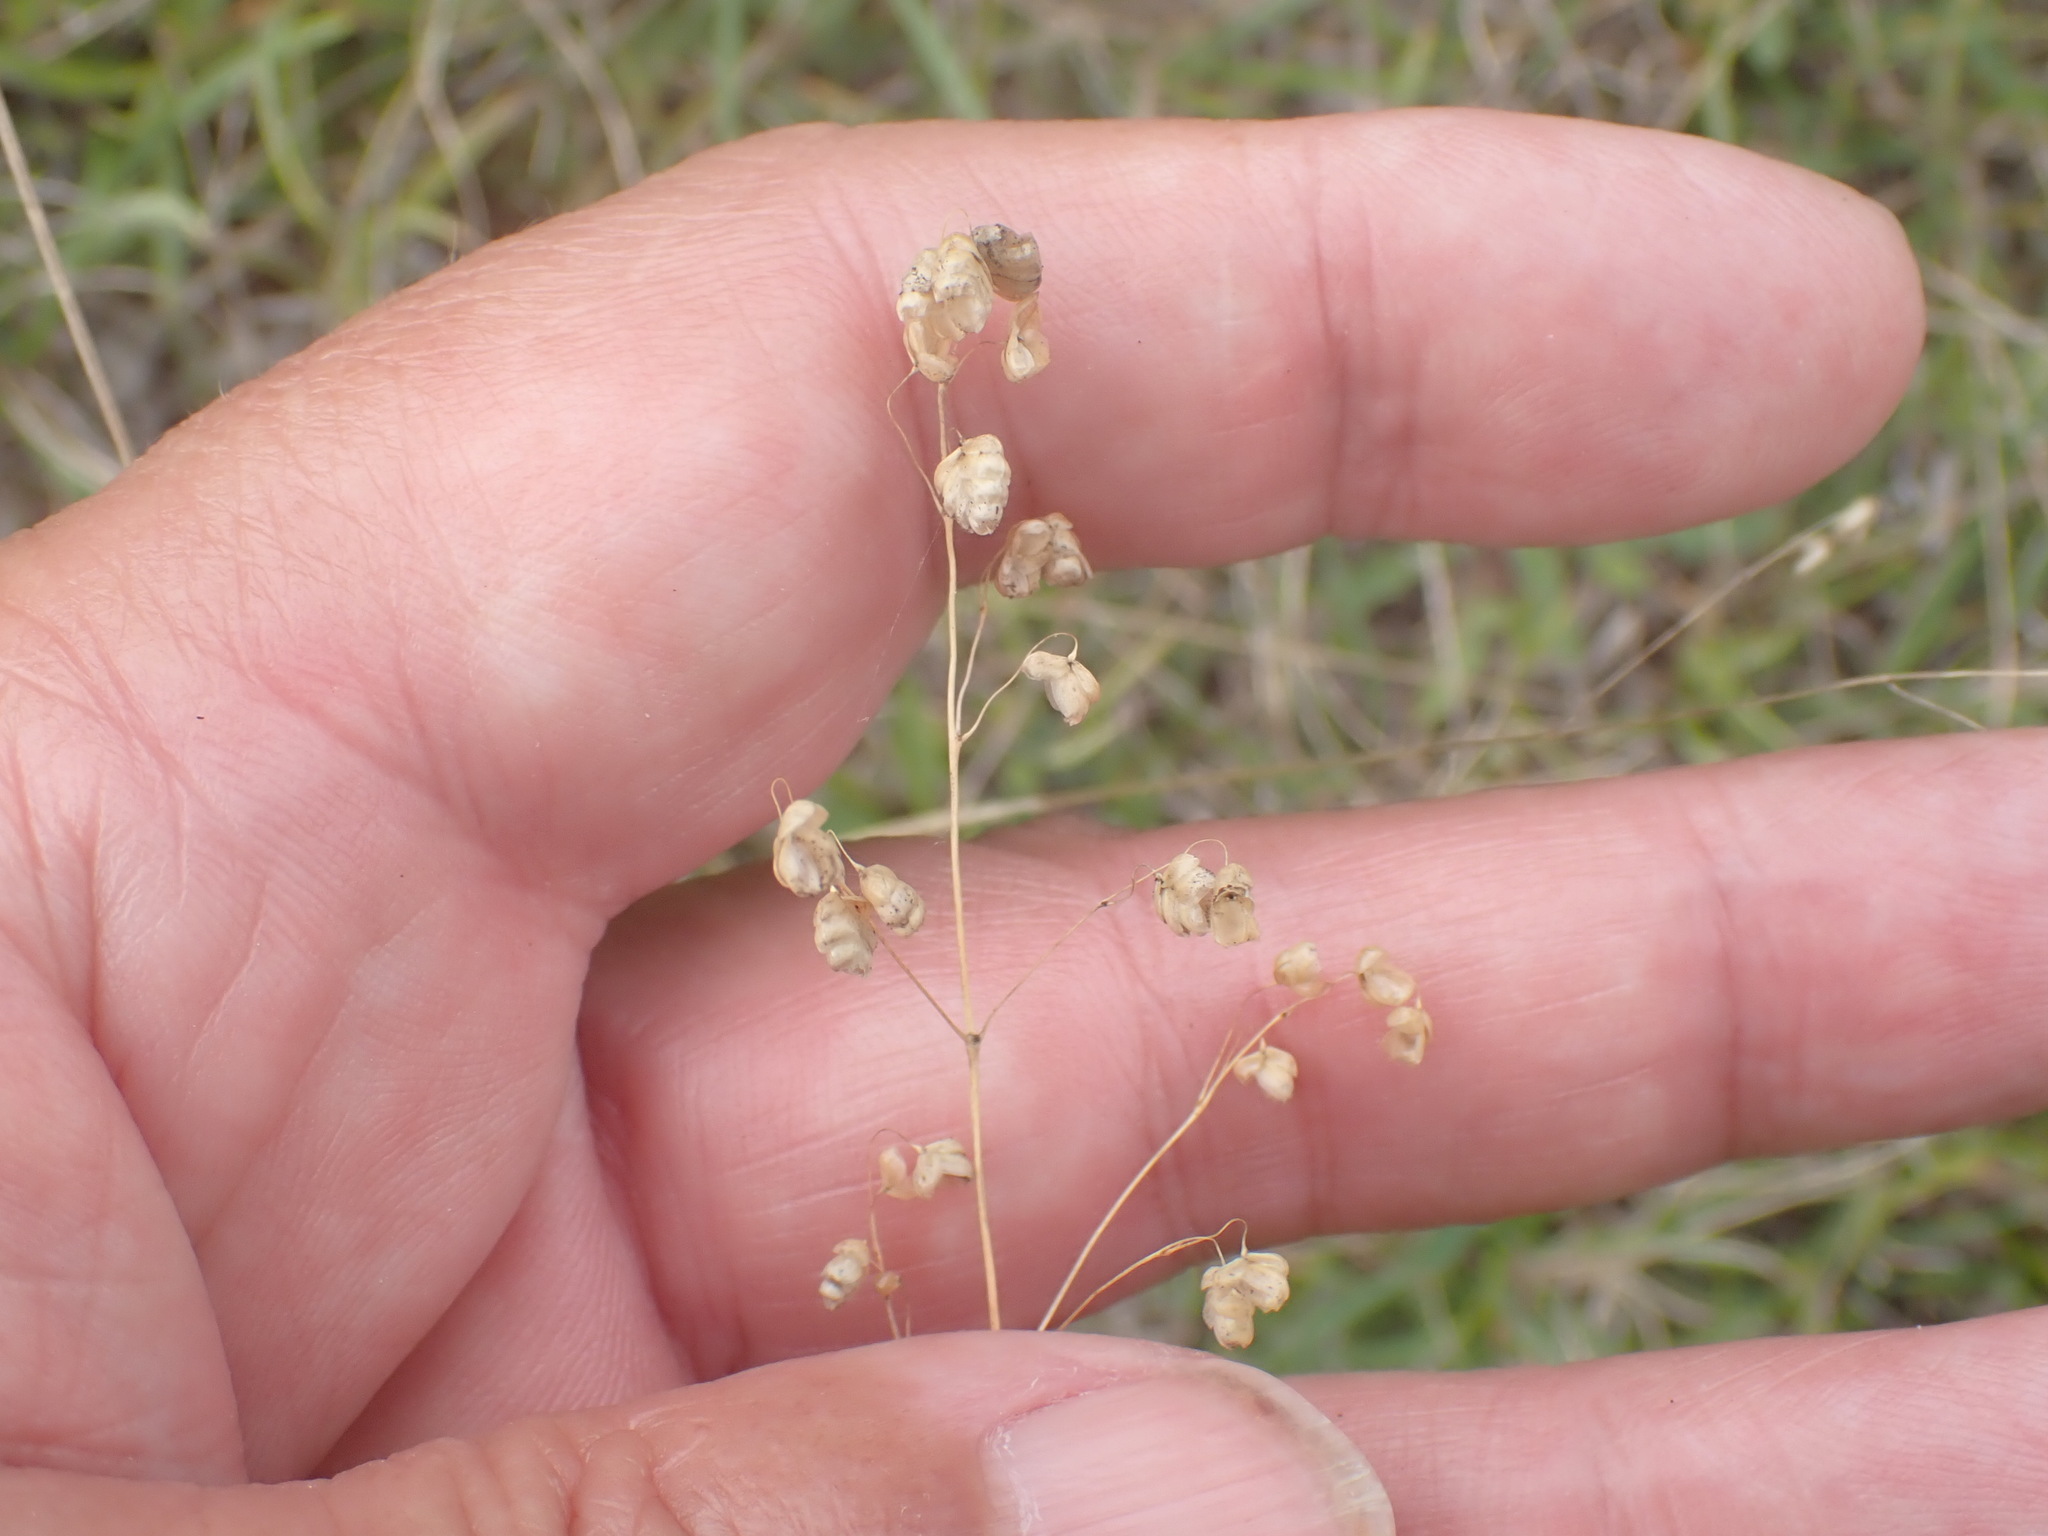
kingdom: Plantae
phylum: Tracheophyta
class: Liliopsida
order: Poales
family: Poaceae
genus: Briza
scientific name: Briza media
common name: Quaking grass
